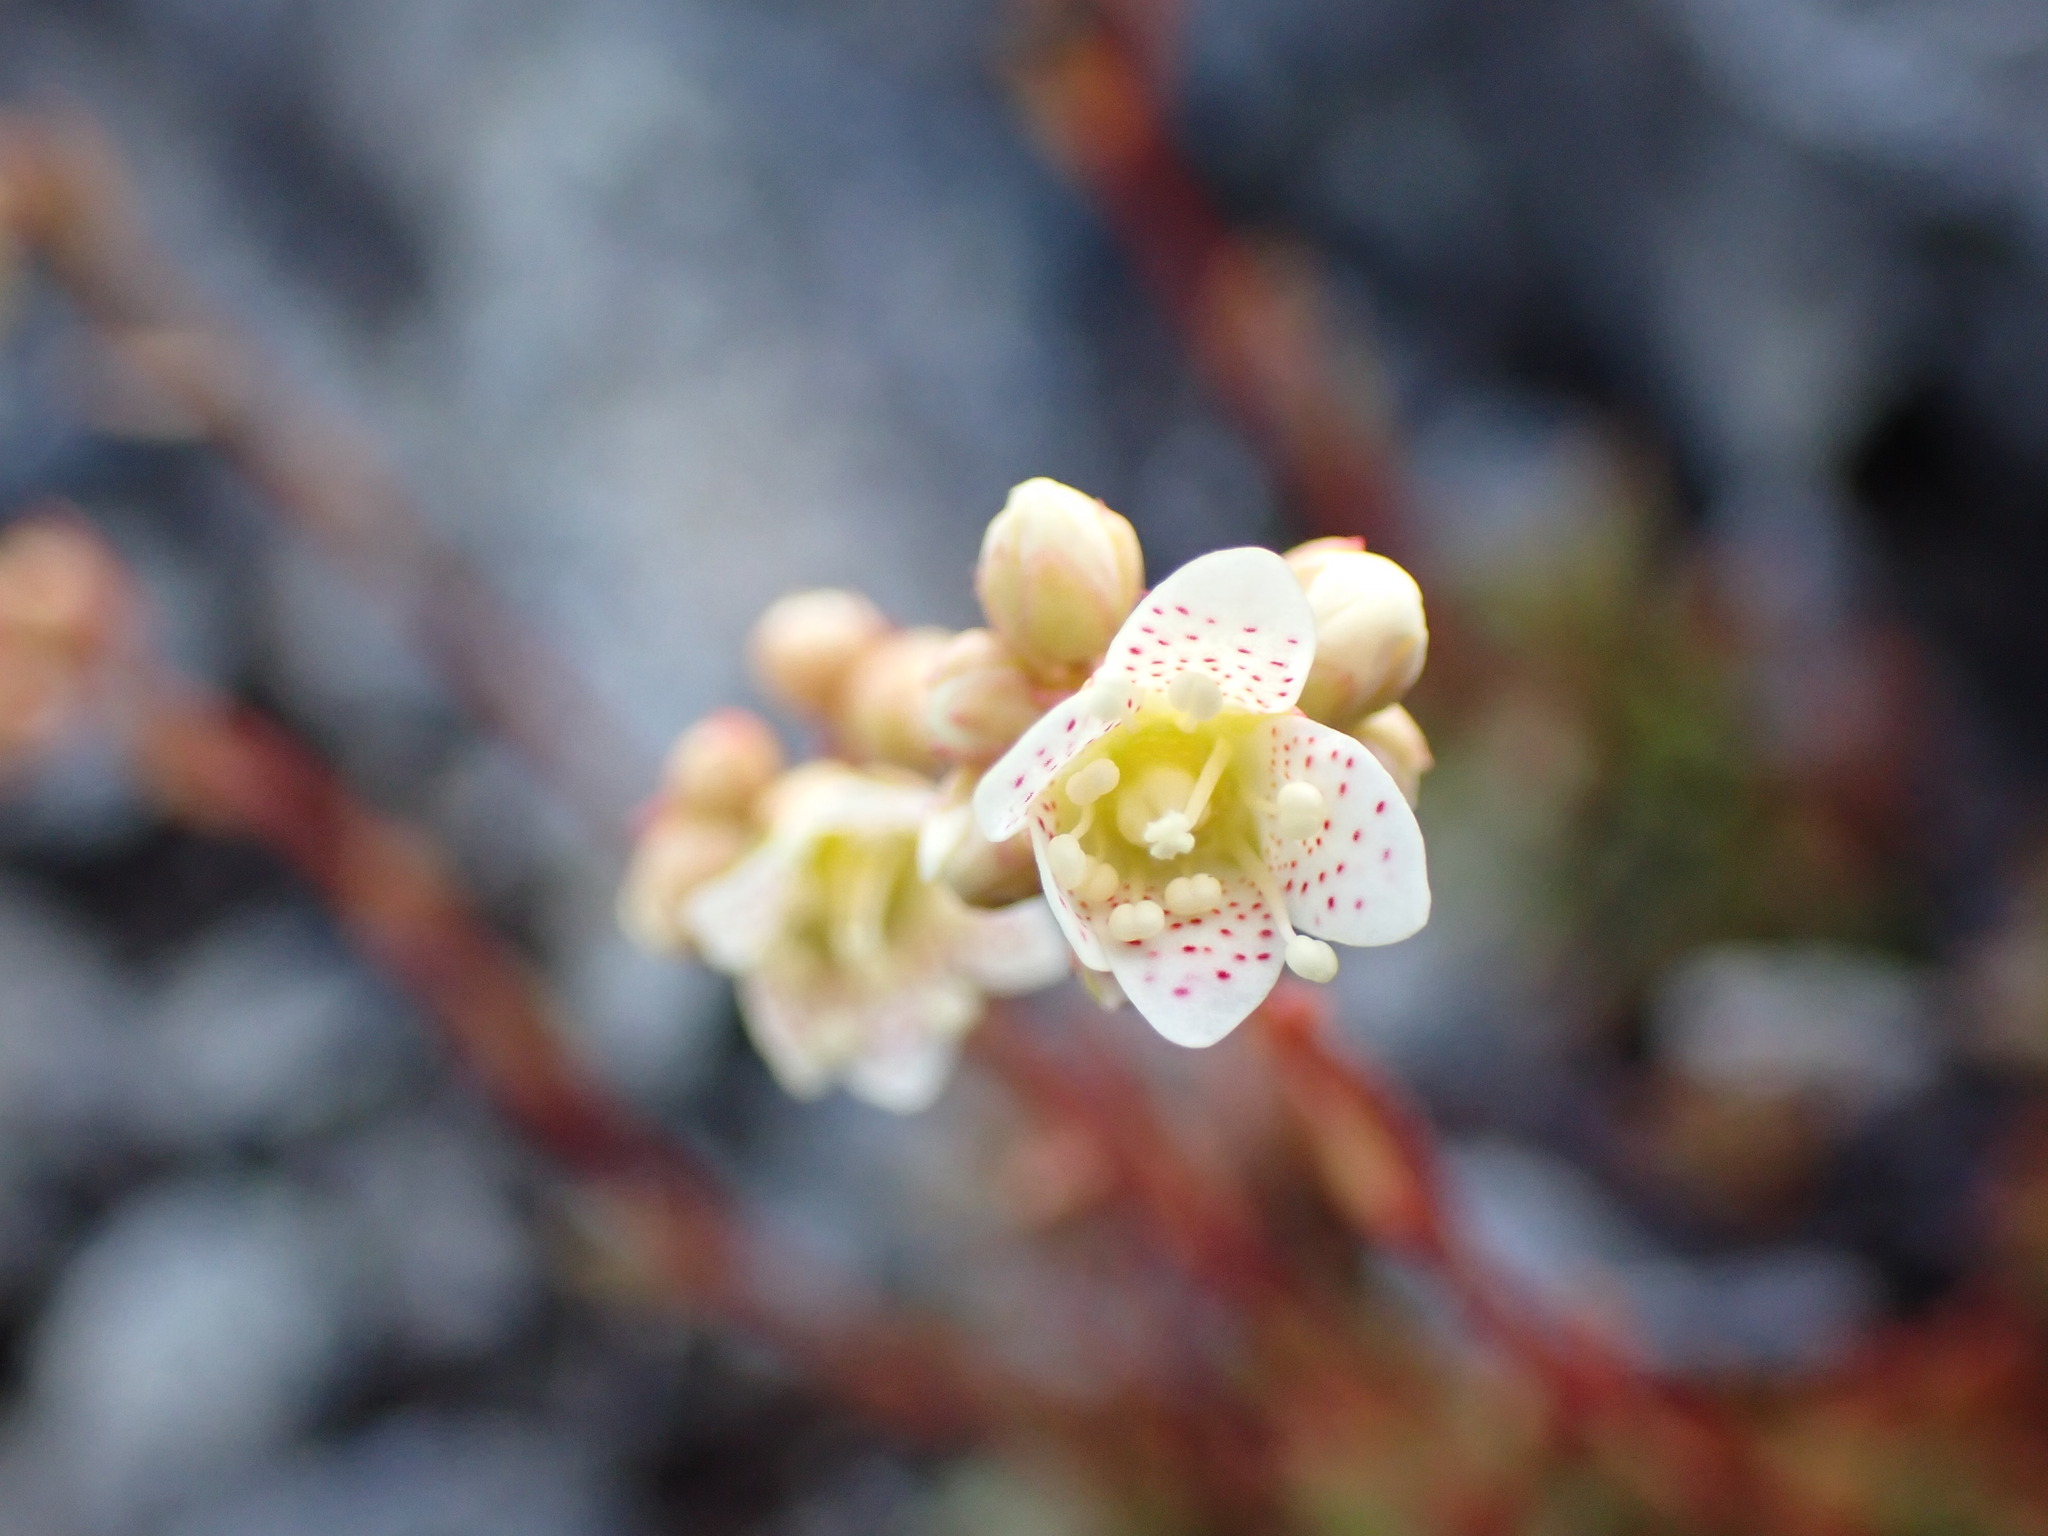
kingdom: Plantae
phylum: Tracheophyta
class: Magnoliopsida
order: Saxifragales
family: Saxifragaceae
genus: Saxifraga
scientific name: Saxifraga tricuspidata
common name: Prickly saxifrage
